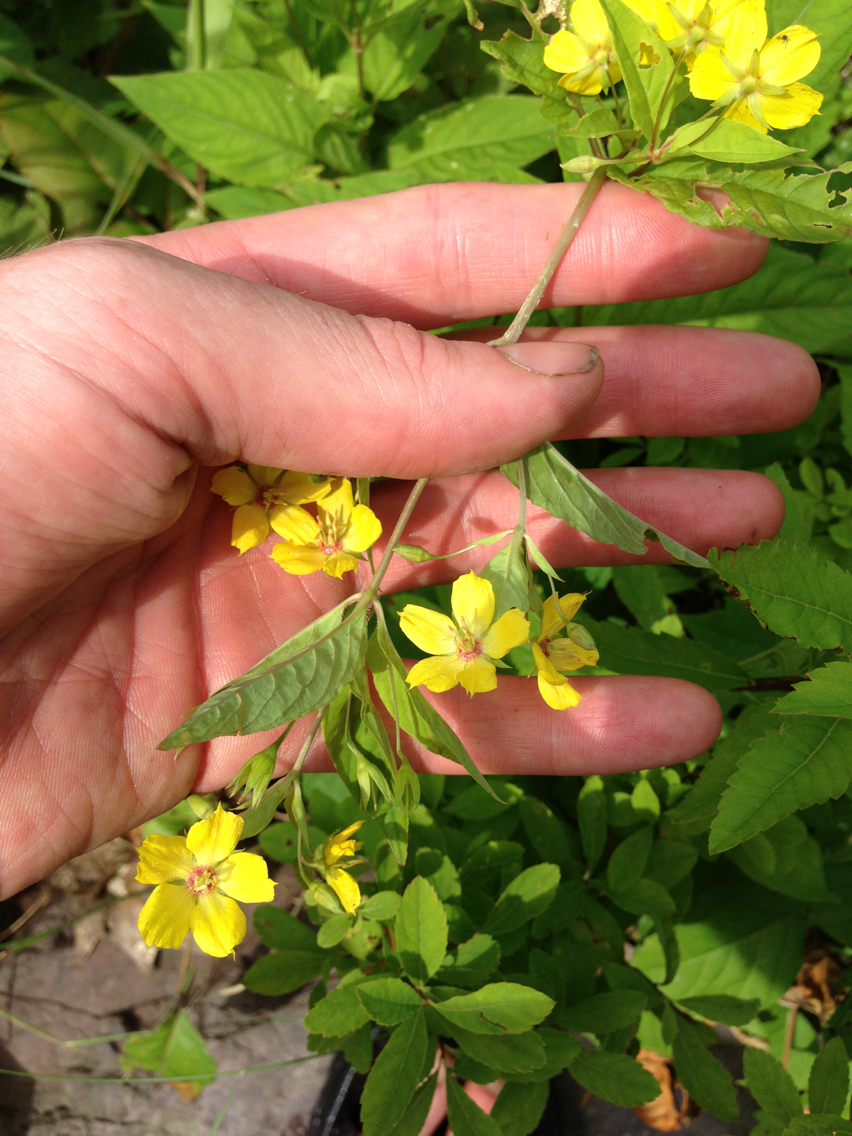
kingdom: Plantae
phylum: Tracheophyta
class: Magnoliopsida
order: Ericales
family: Primulaceae
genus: Lysimachia
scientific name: Lysimachia ciliata
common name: Fringed loosestrife
